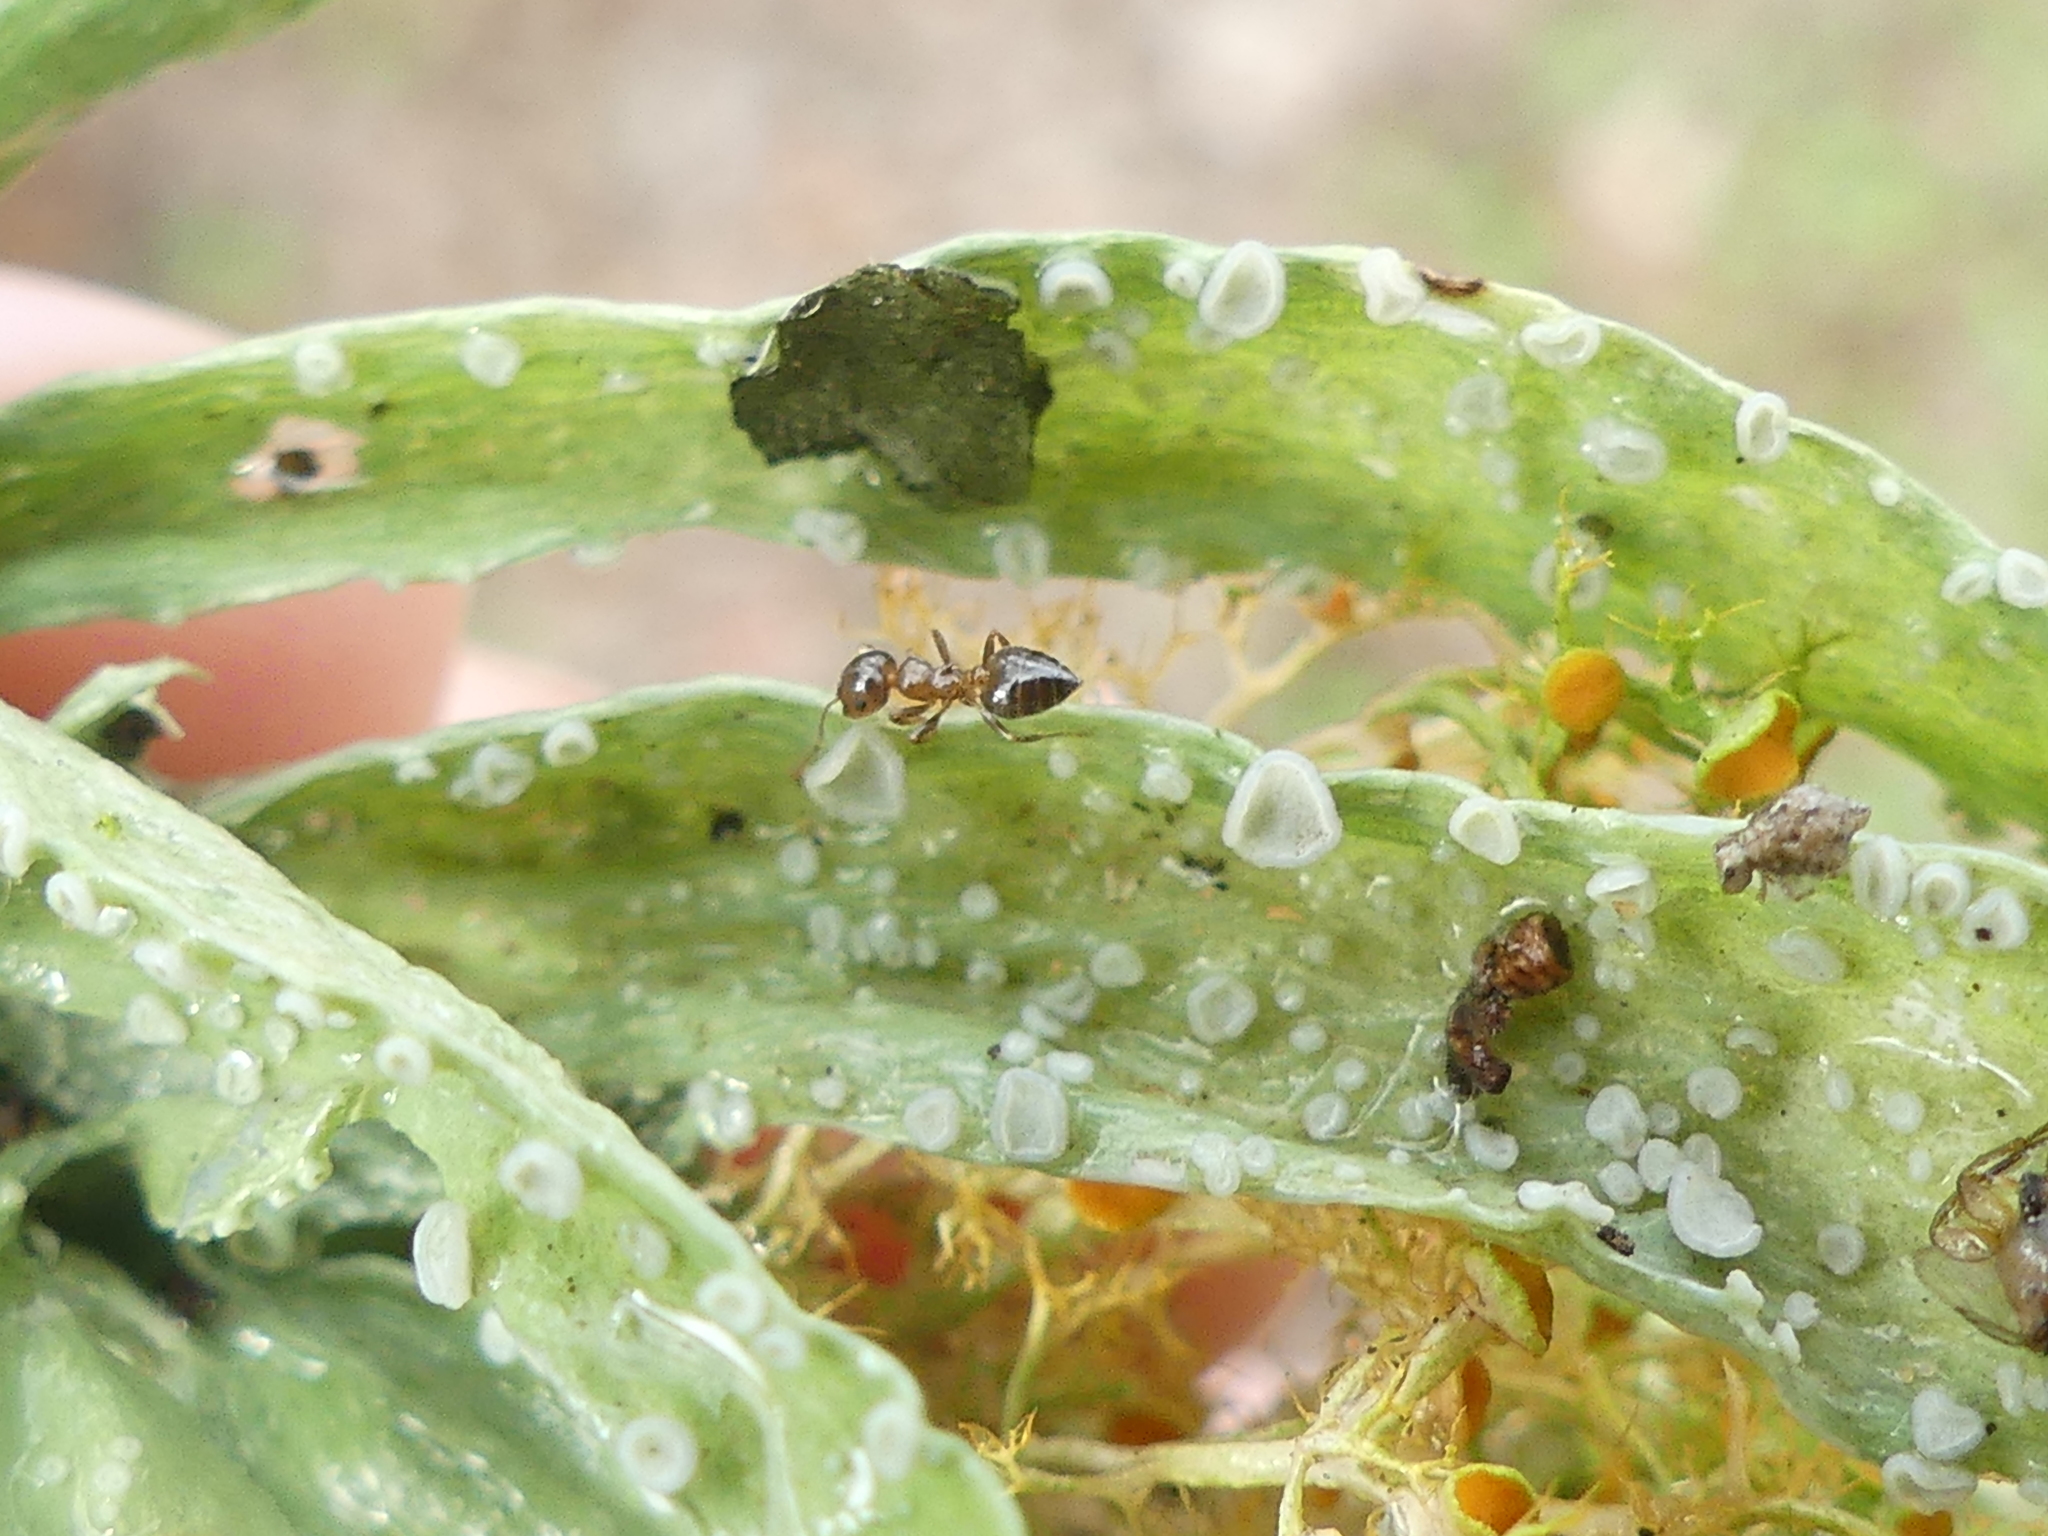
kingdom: Animalia
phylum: Arthropoda
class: Insecta
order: Hymenoptera
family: Formicidae
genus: Crematogaster
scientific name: Crematogaster ashmeadi
